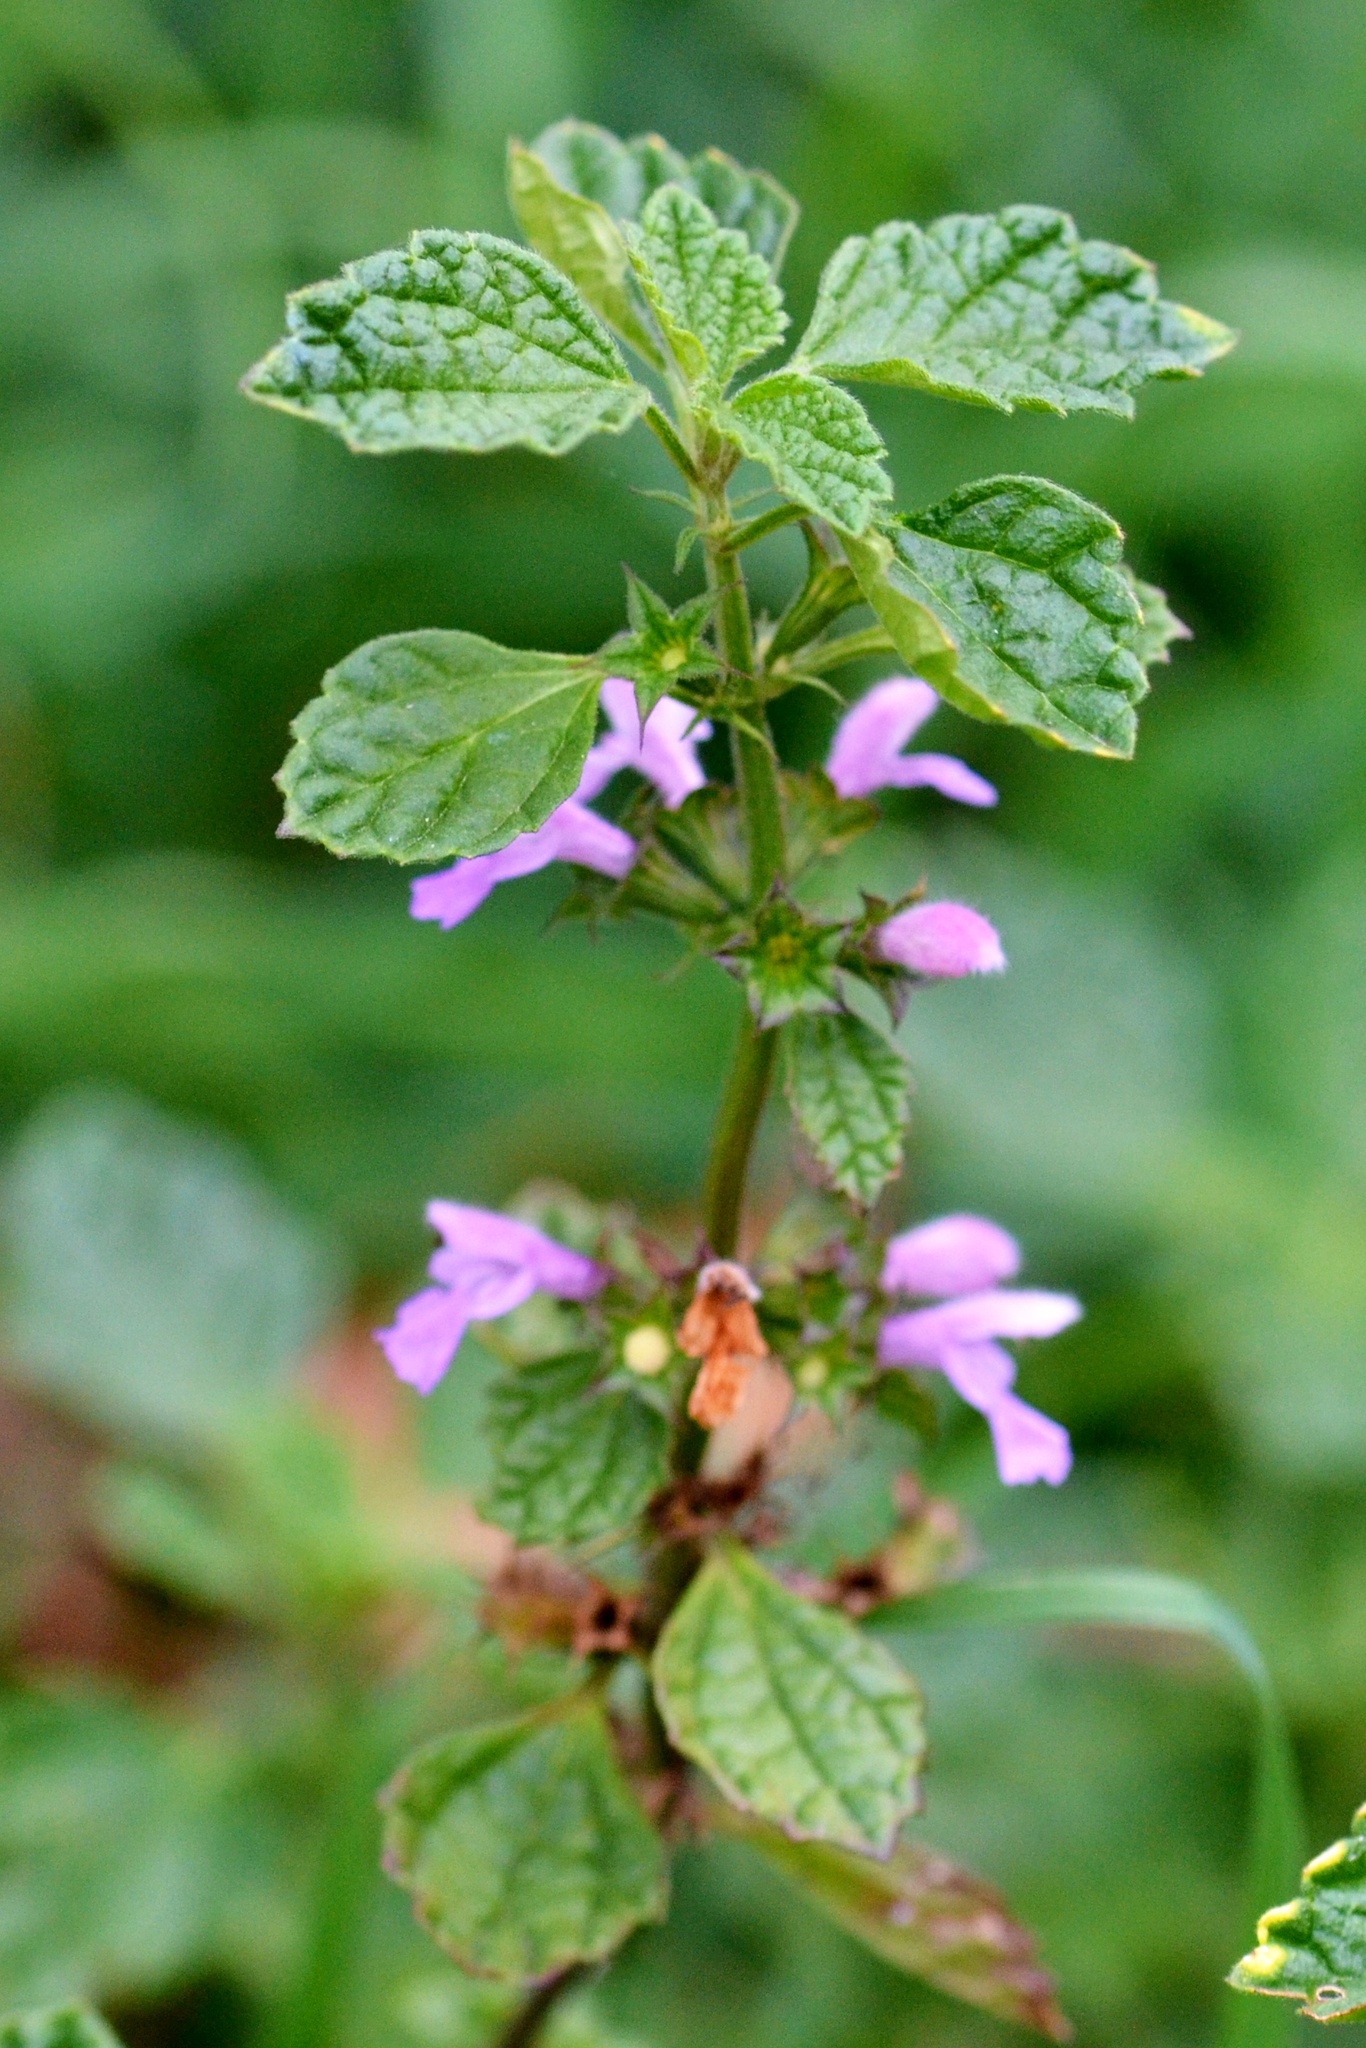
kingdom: Plantae
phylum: Tracheophyta
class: Magnoliopsida
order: Lamiales
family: Lamiaceae
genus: Ballota
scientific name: Ballota nigra
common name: Black horehound
